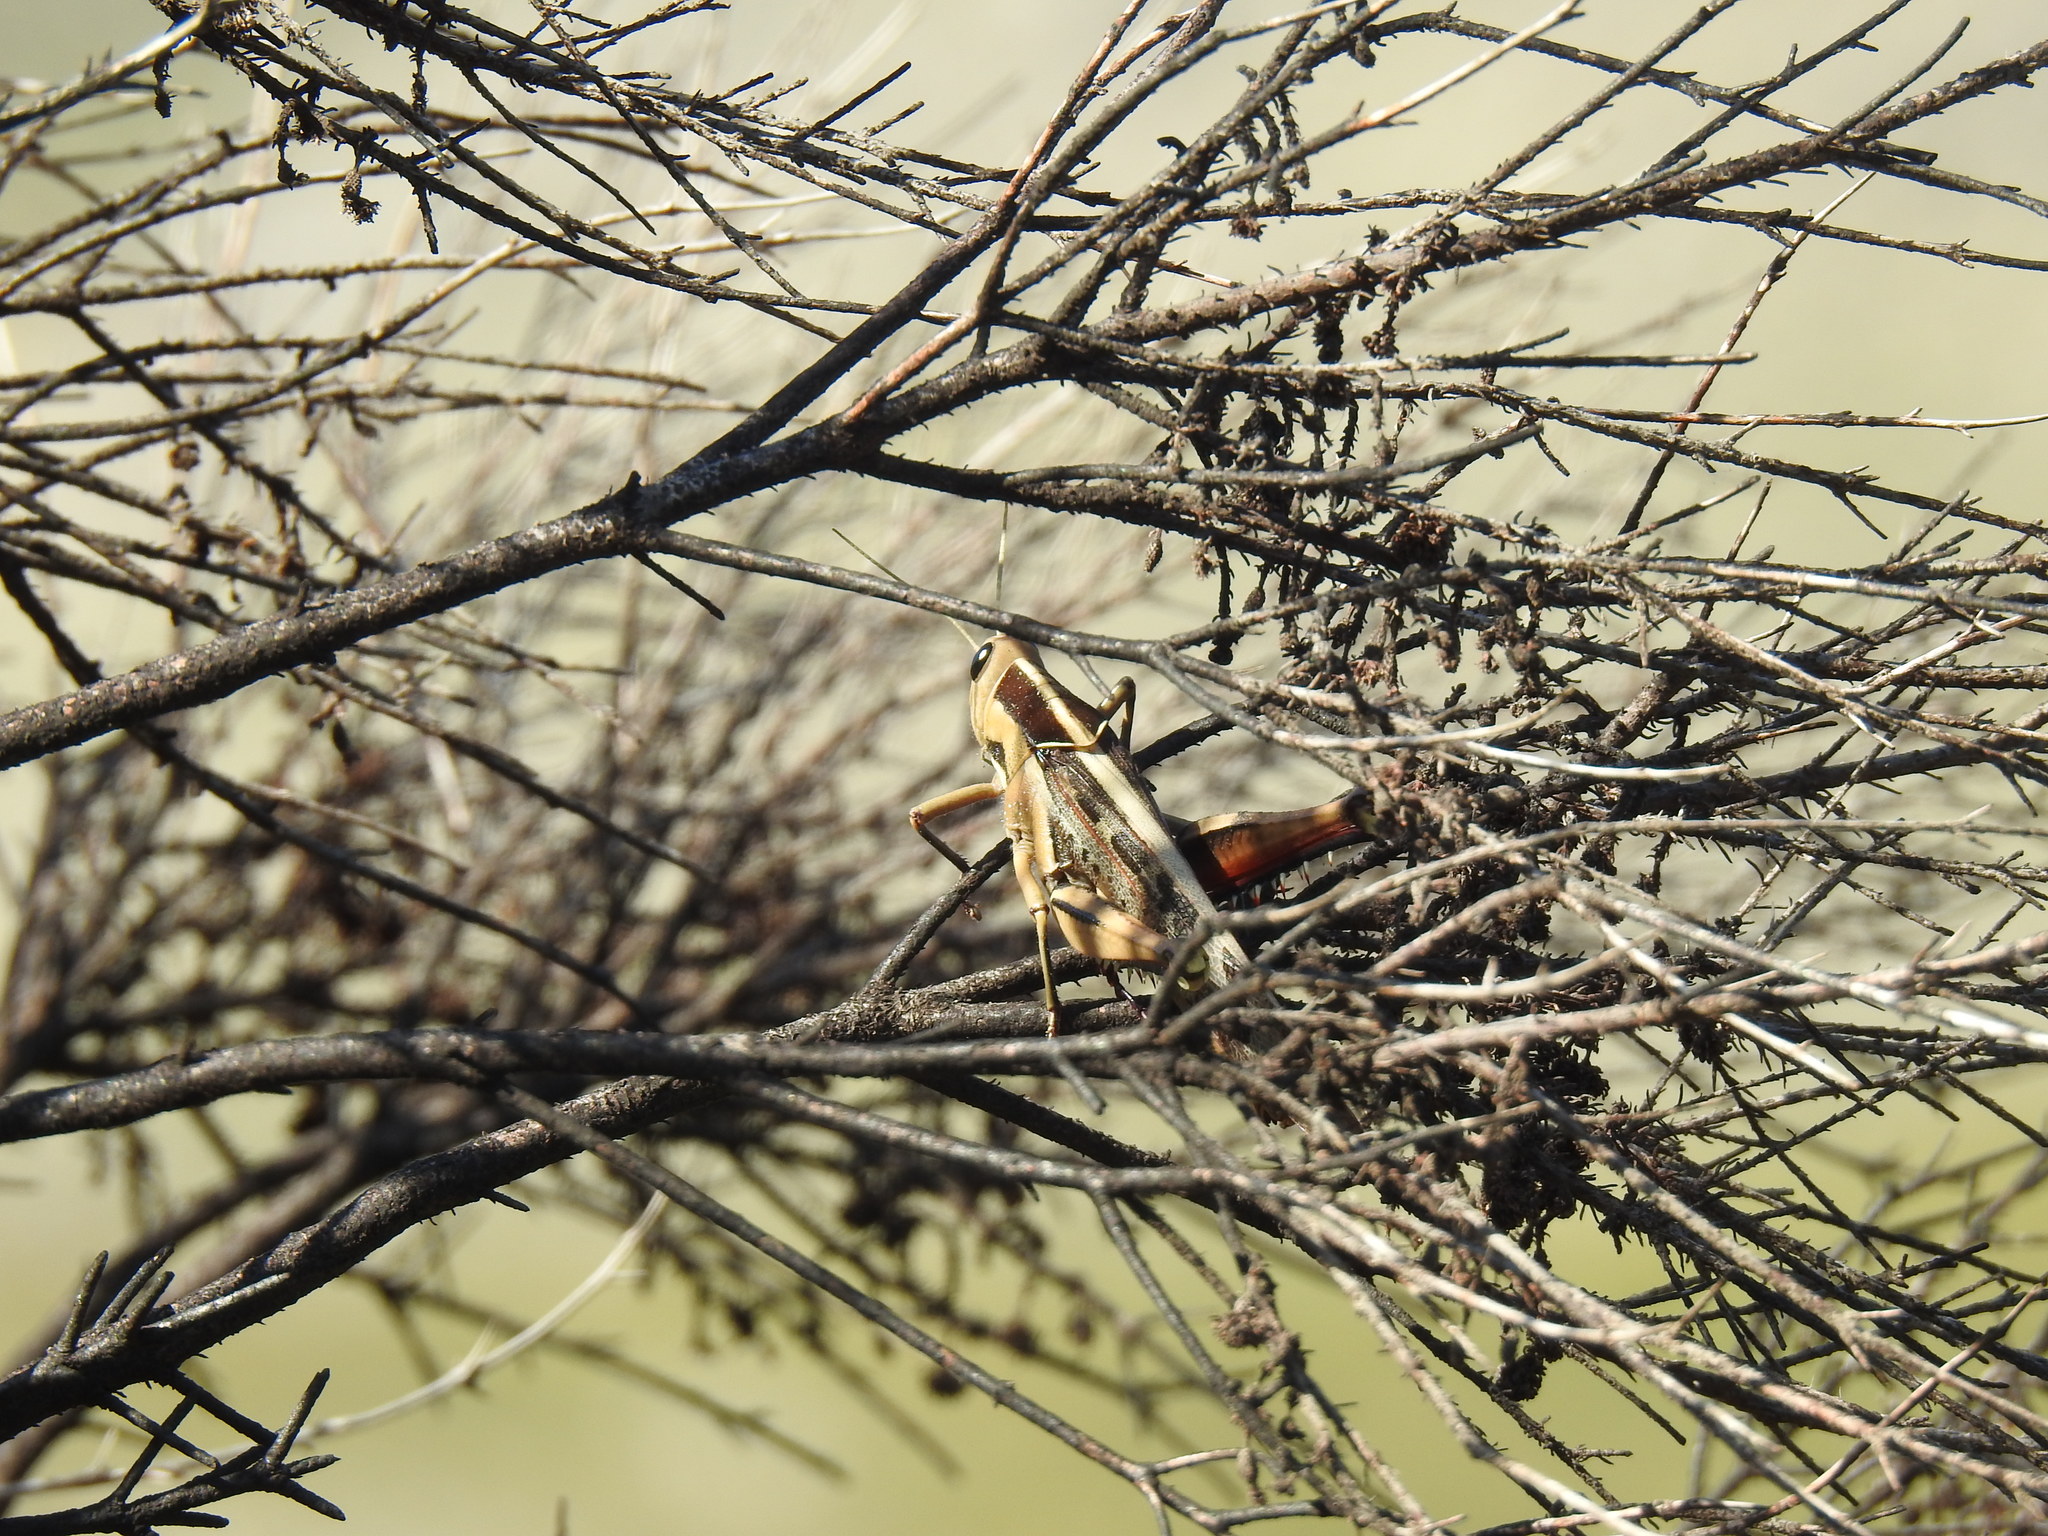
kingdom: Animalia
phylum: Arthropoda
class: Insecta
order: Orthoptera
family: Acrididae
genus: Acanthacris
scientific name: Acanthacris ruficornis
